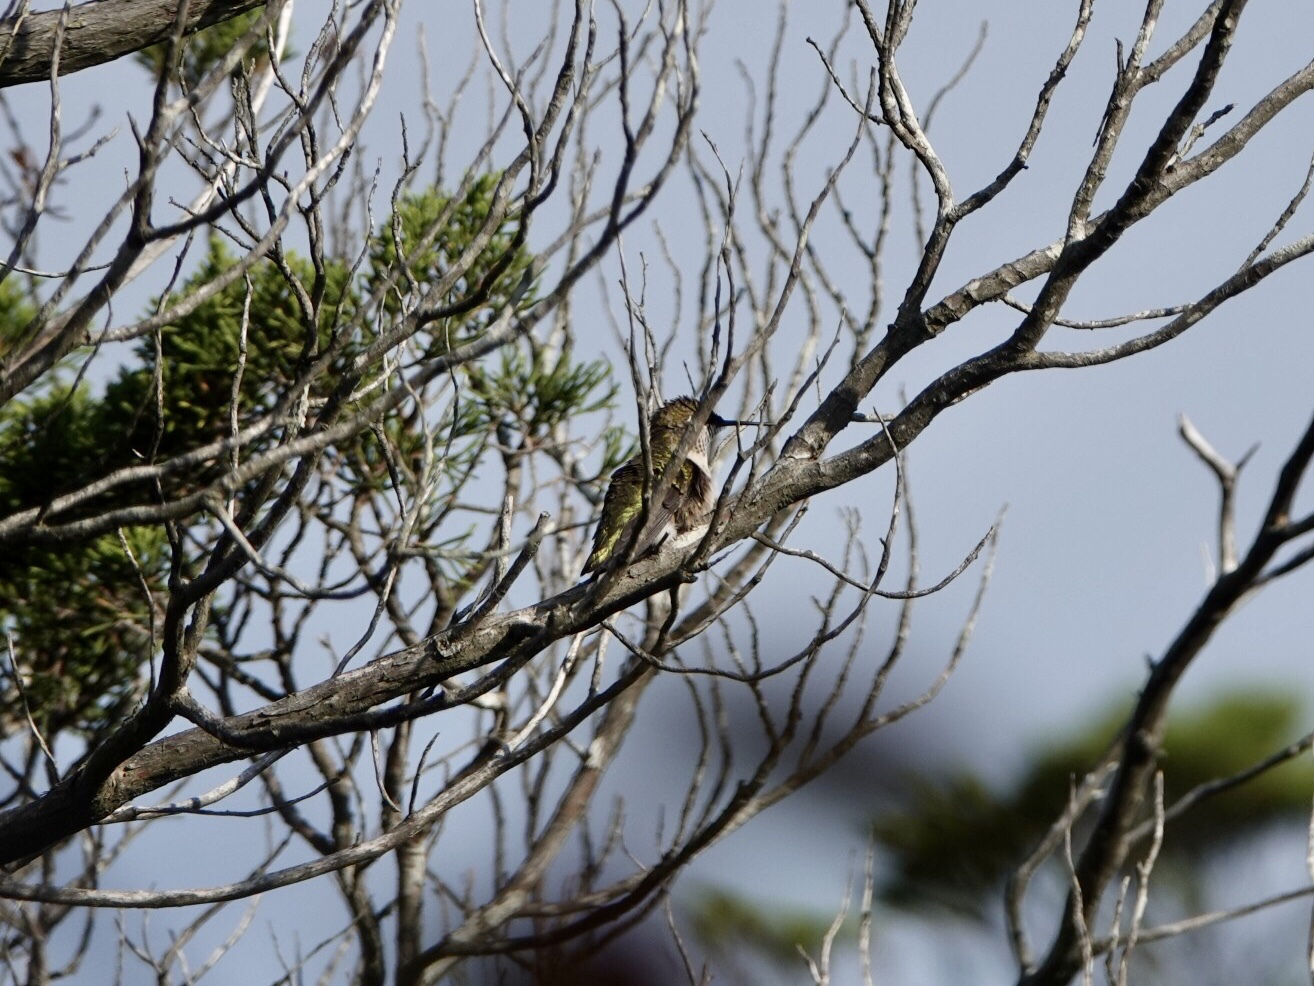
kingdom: Animalia
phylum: Chordata
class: Aves
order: Apodiformes
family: Trochilidae
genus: Archilochus
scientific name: Archilochus colubris
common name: Ruby-throated hummingbird
